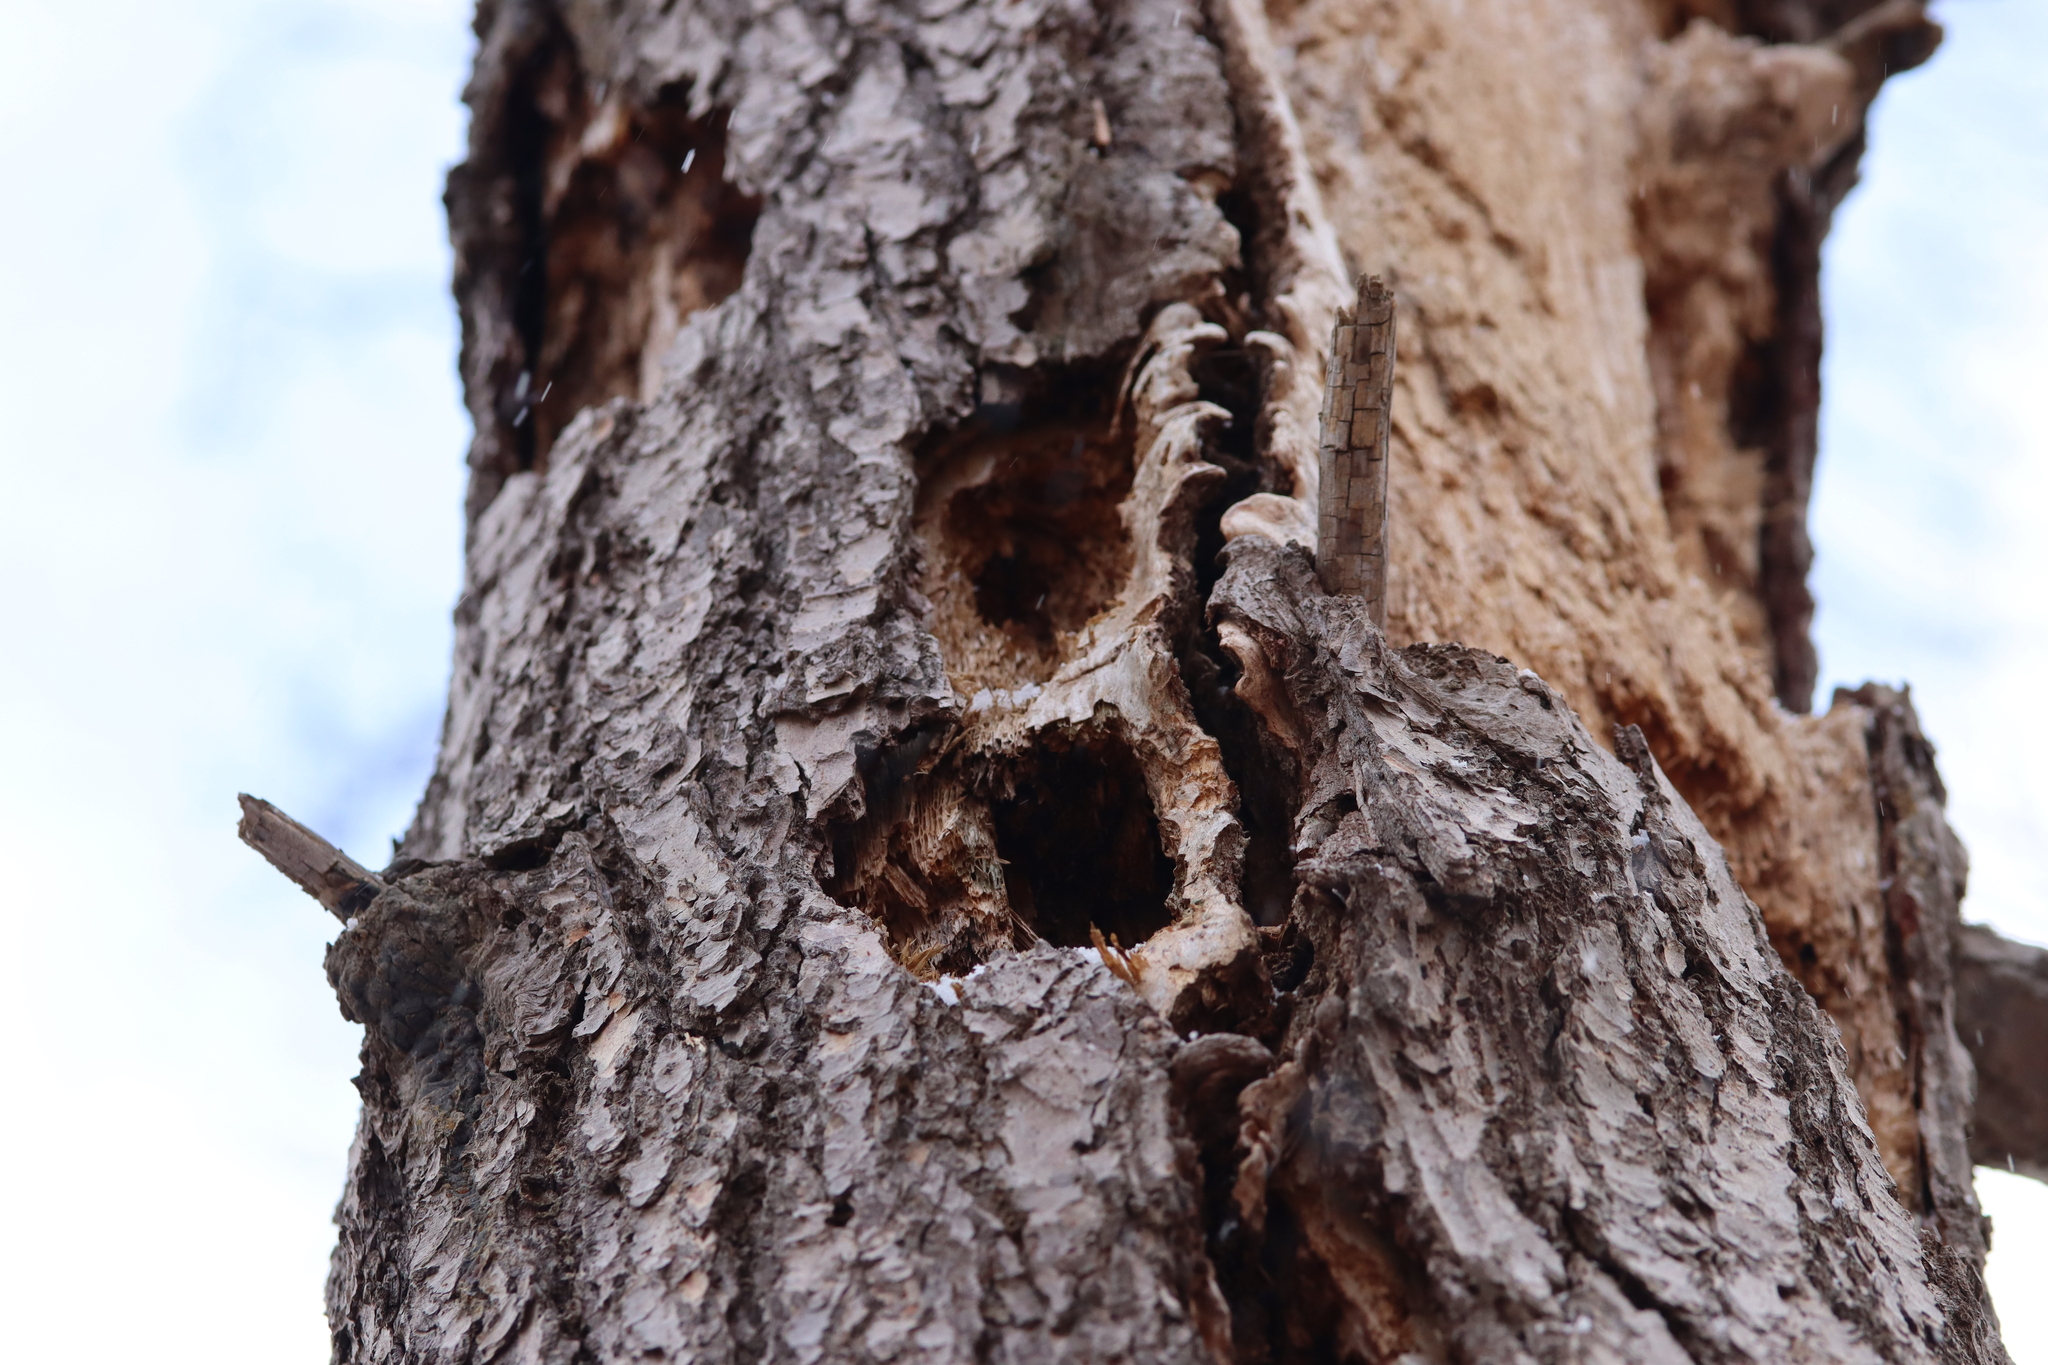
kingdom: Animalia
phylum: Chordata
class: Aves
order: Piciformes
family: Picidae
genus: Dryocopus
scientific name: Dryocopus pileatus
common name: Pileated woodpecker
